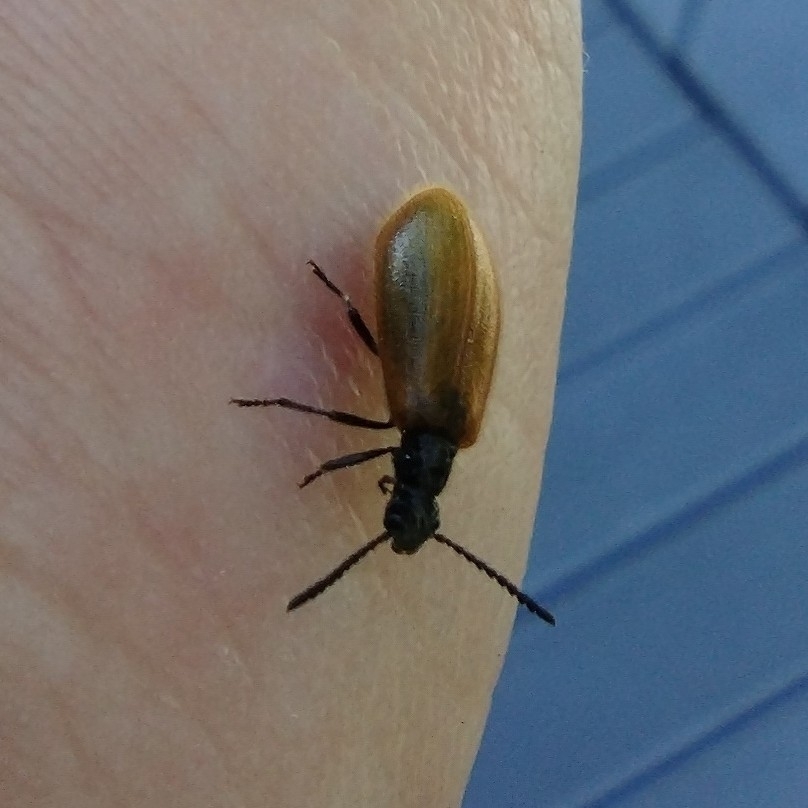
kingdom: Animalia
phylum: Arthropoda
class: Insecta
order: Coleoptera
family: Tenebrionidae
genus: Lagria
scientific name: Lagria hirta
